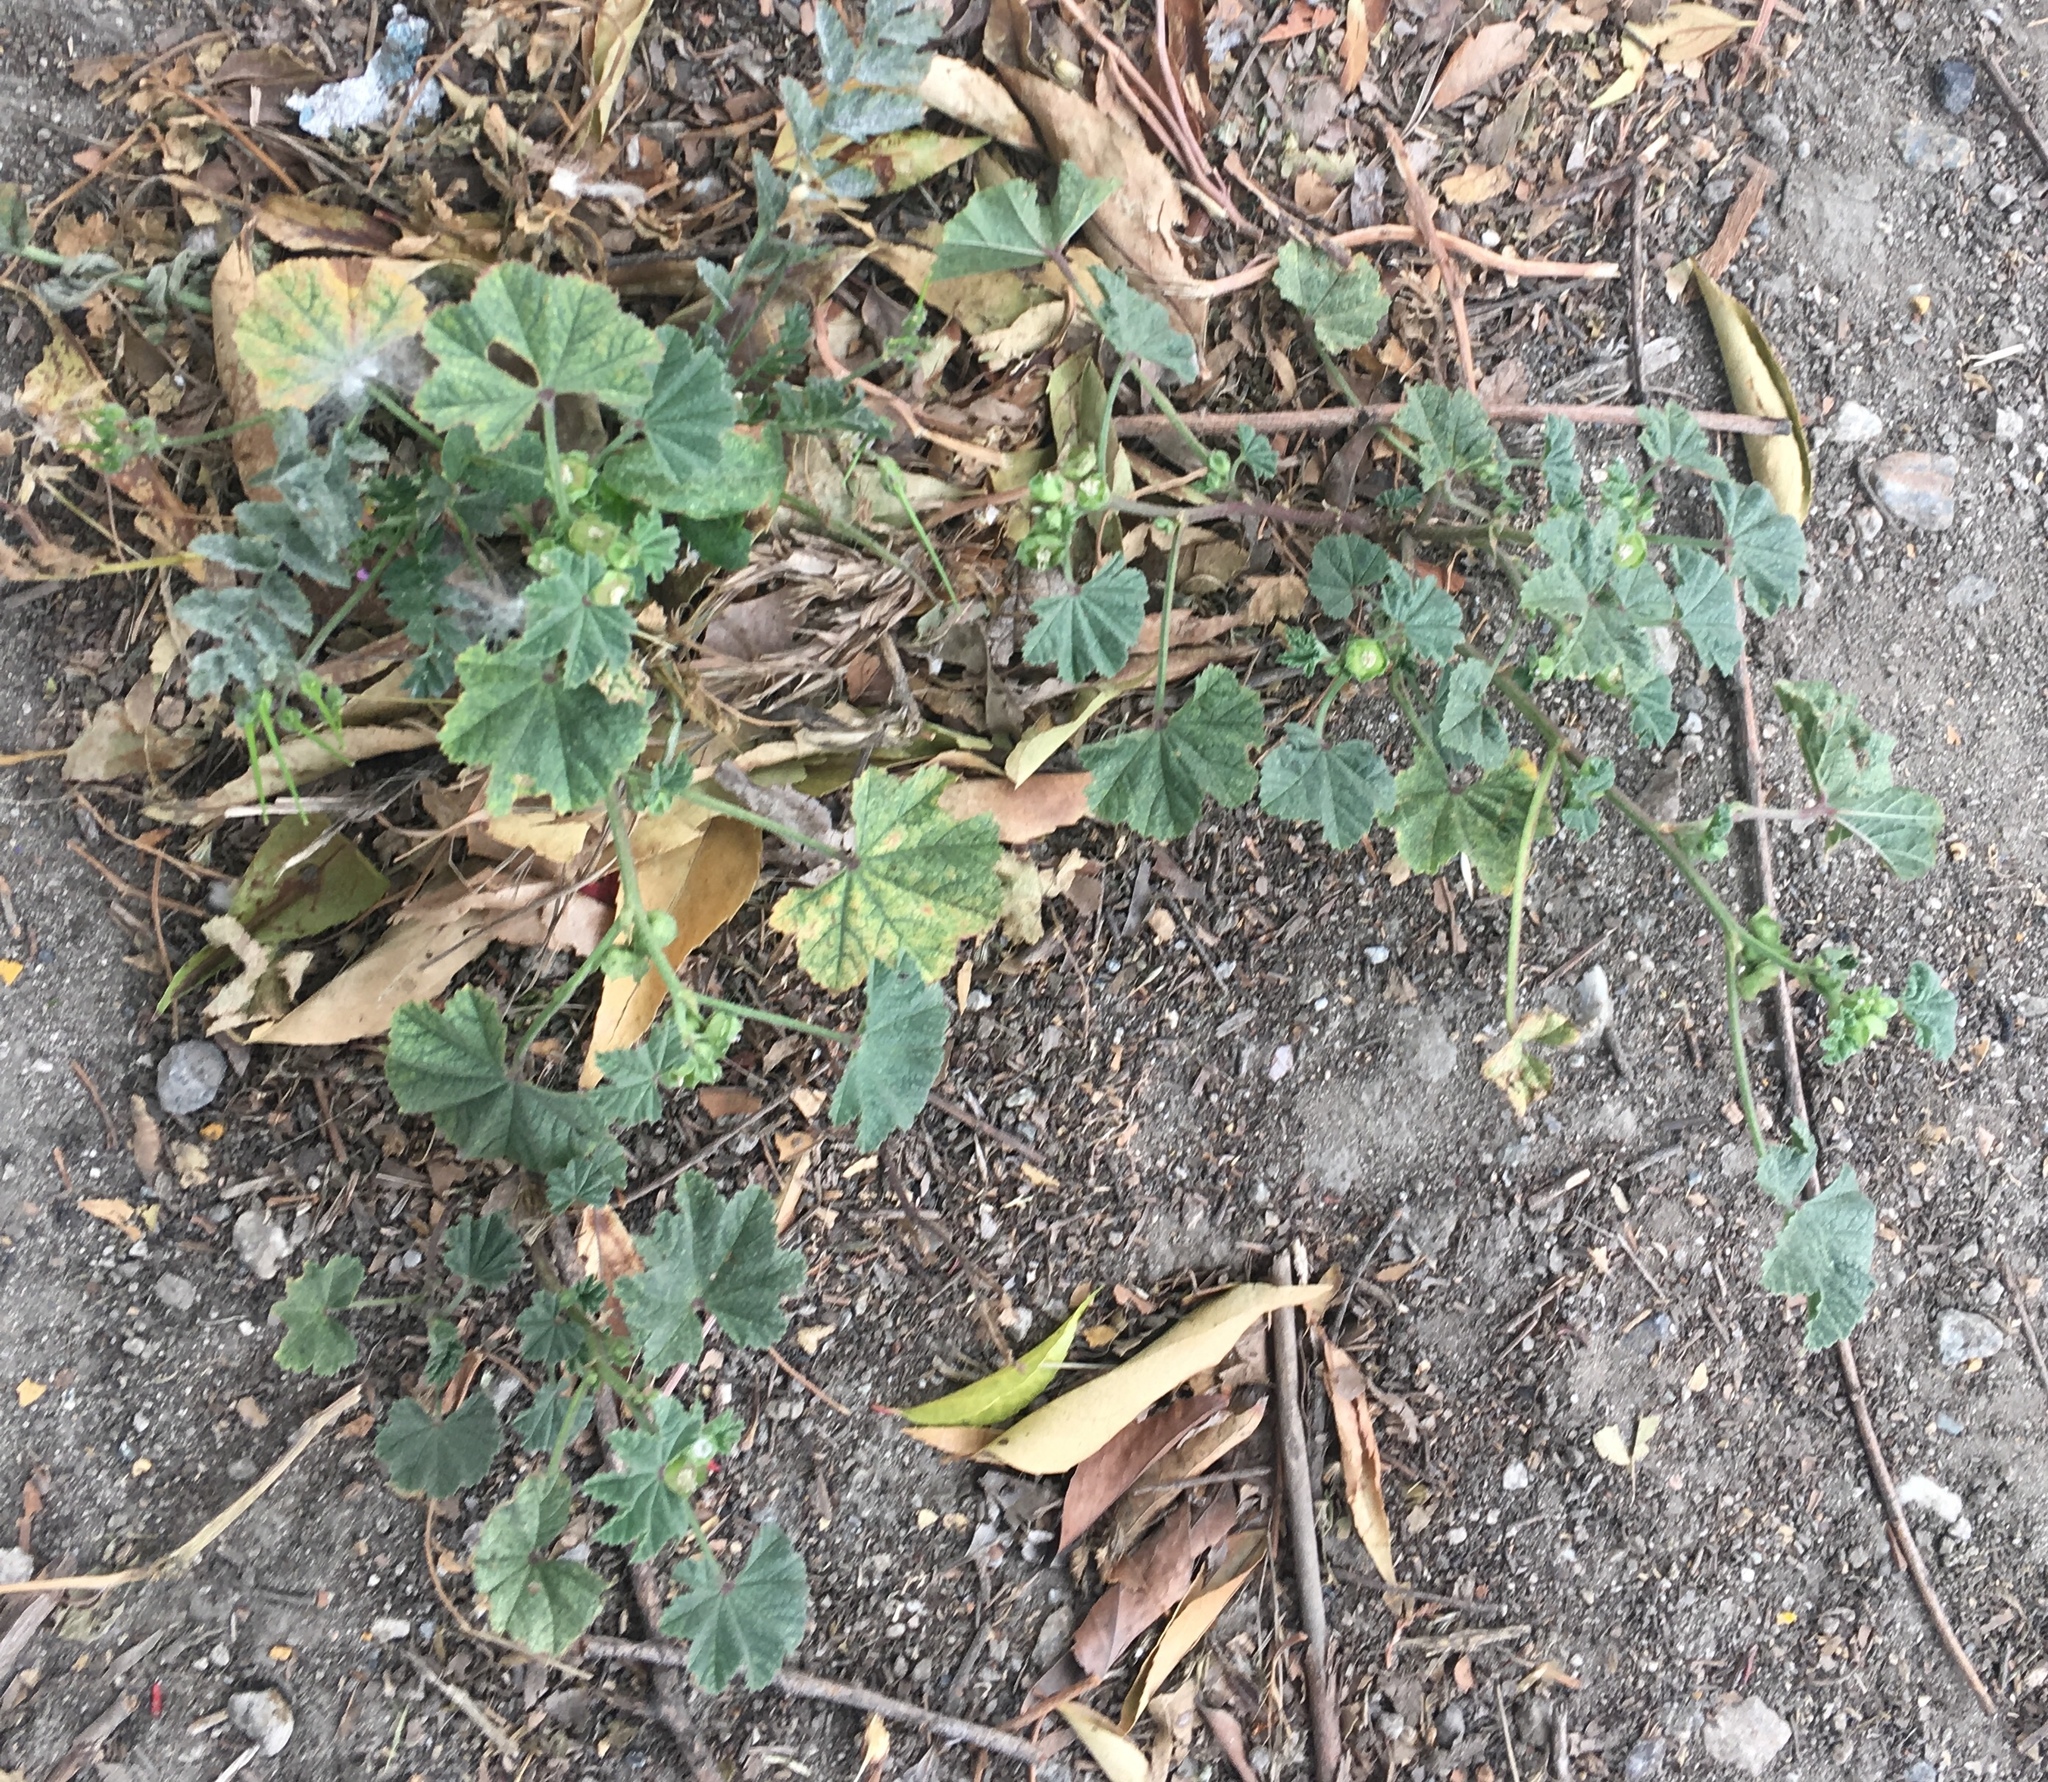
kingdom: Plantae
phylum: Tracheophyta
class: Magnoliopsida
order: Malvales
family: Malvaceae
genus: Malva
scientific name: Malva parviflora
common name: Least mallow
